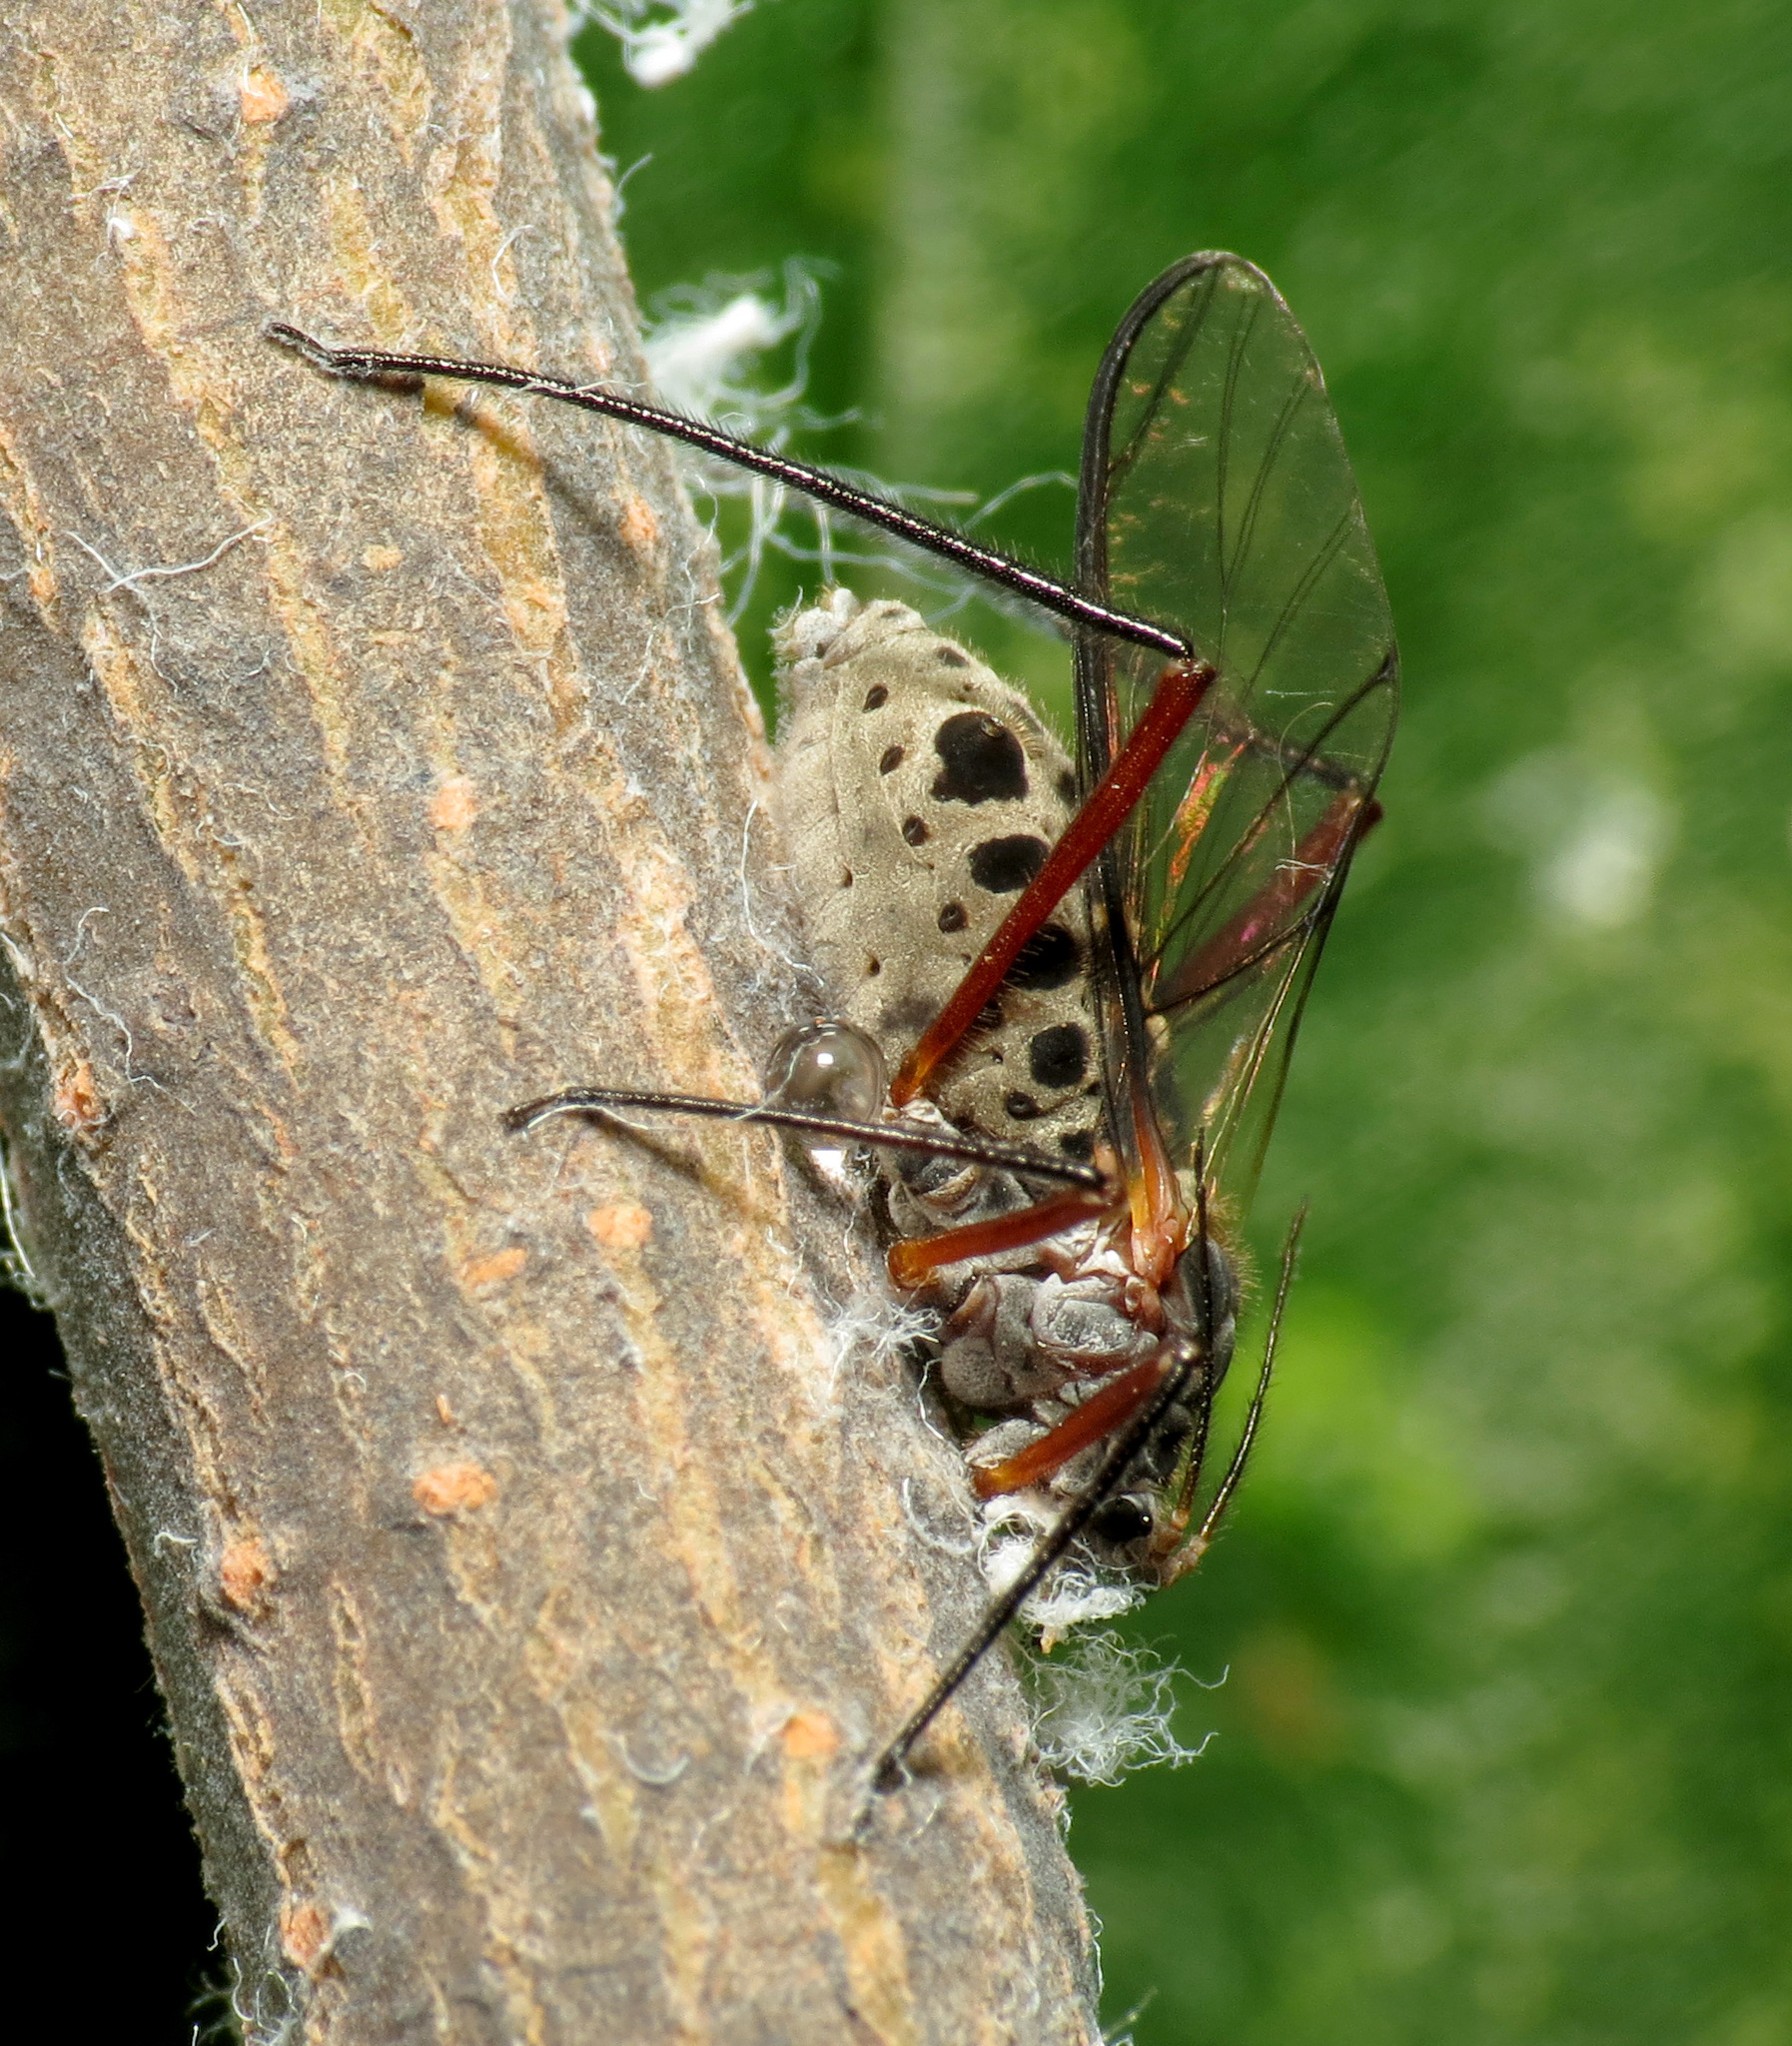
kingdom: Animalia
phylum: Arthropoda
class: Insecta
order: Hemiptera
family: Aphididae
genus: Longistigma
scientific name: Longistigma caryae
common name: Giant bark aphid
